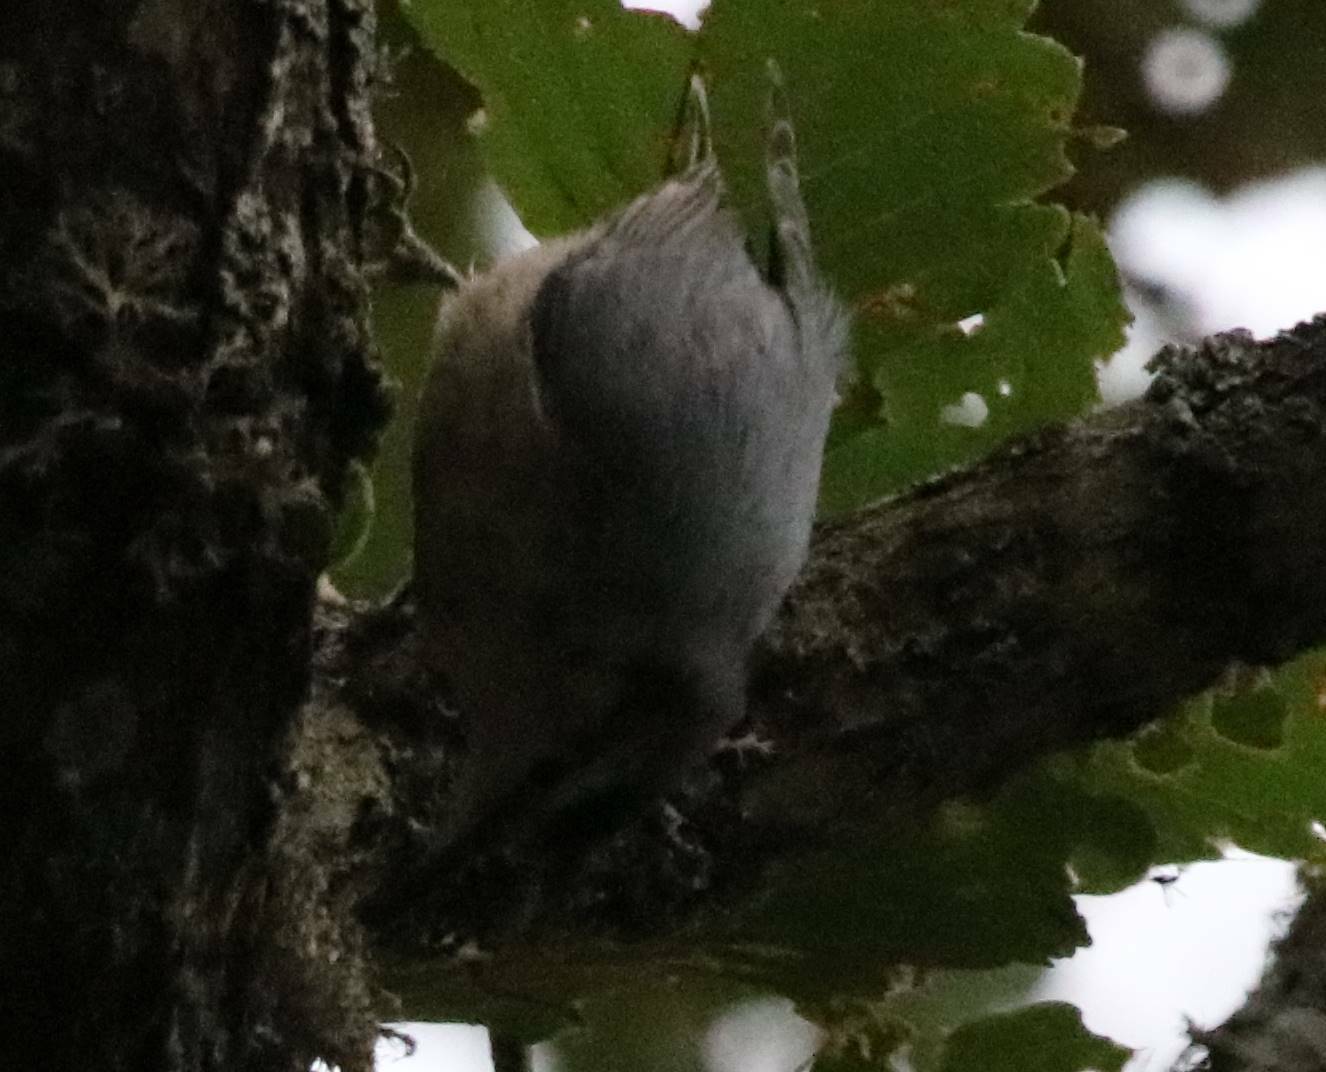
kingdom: Animalia
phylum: Chordata
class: Aves
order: Passeriformes
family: Sittidae
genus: Sitta
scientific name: Sitta ledanti
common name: Algerian nuthatch
